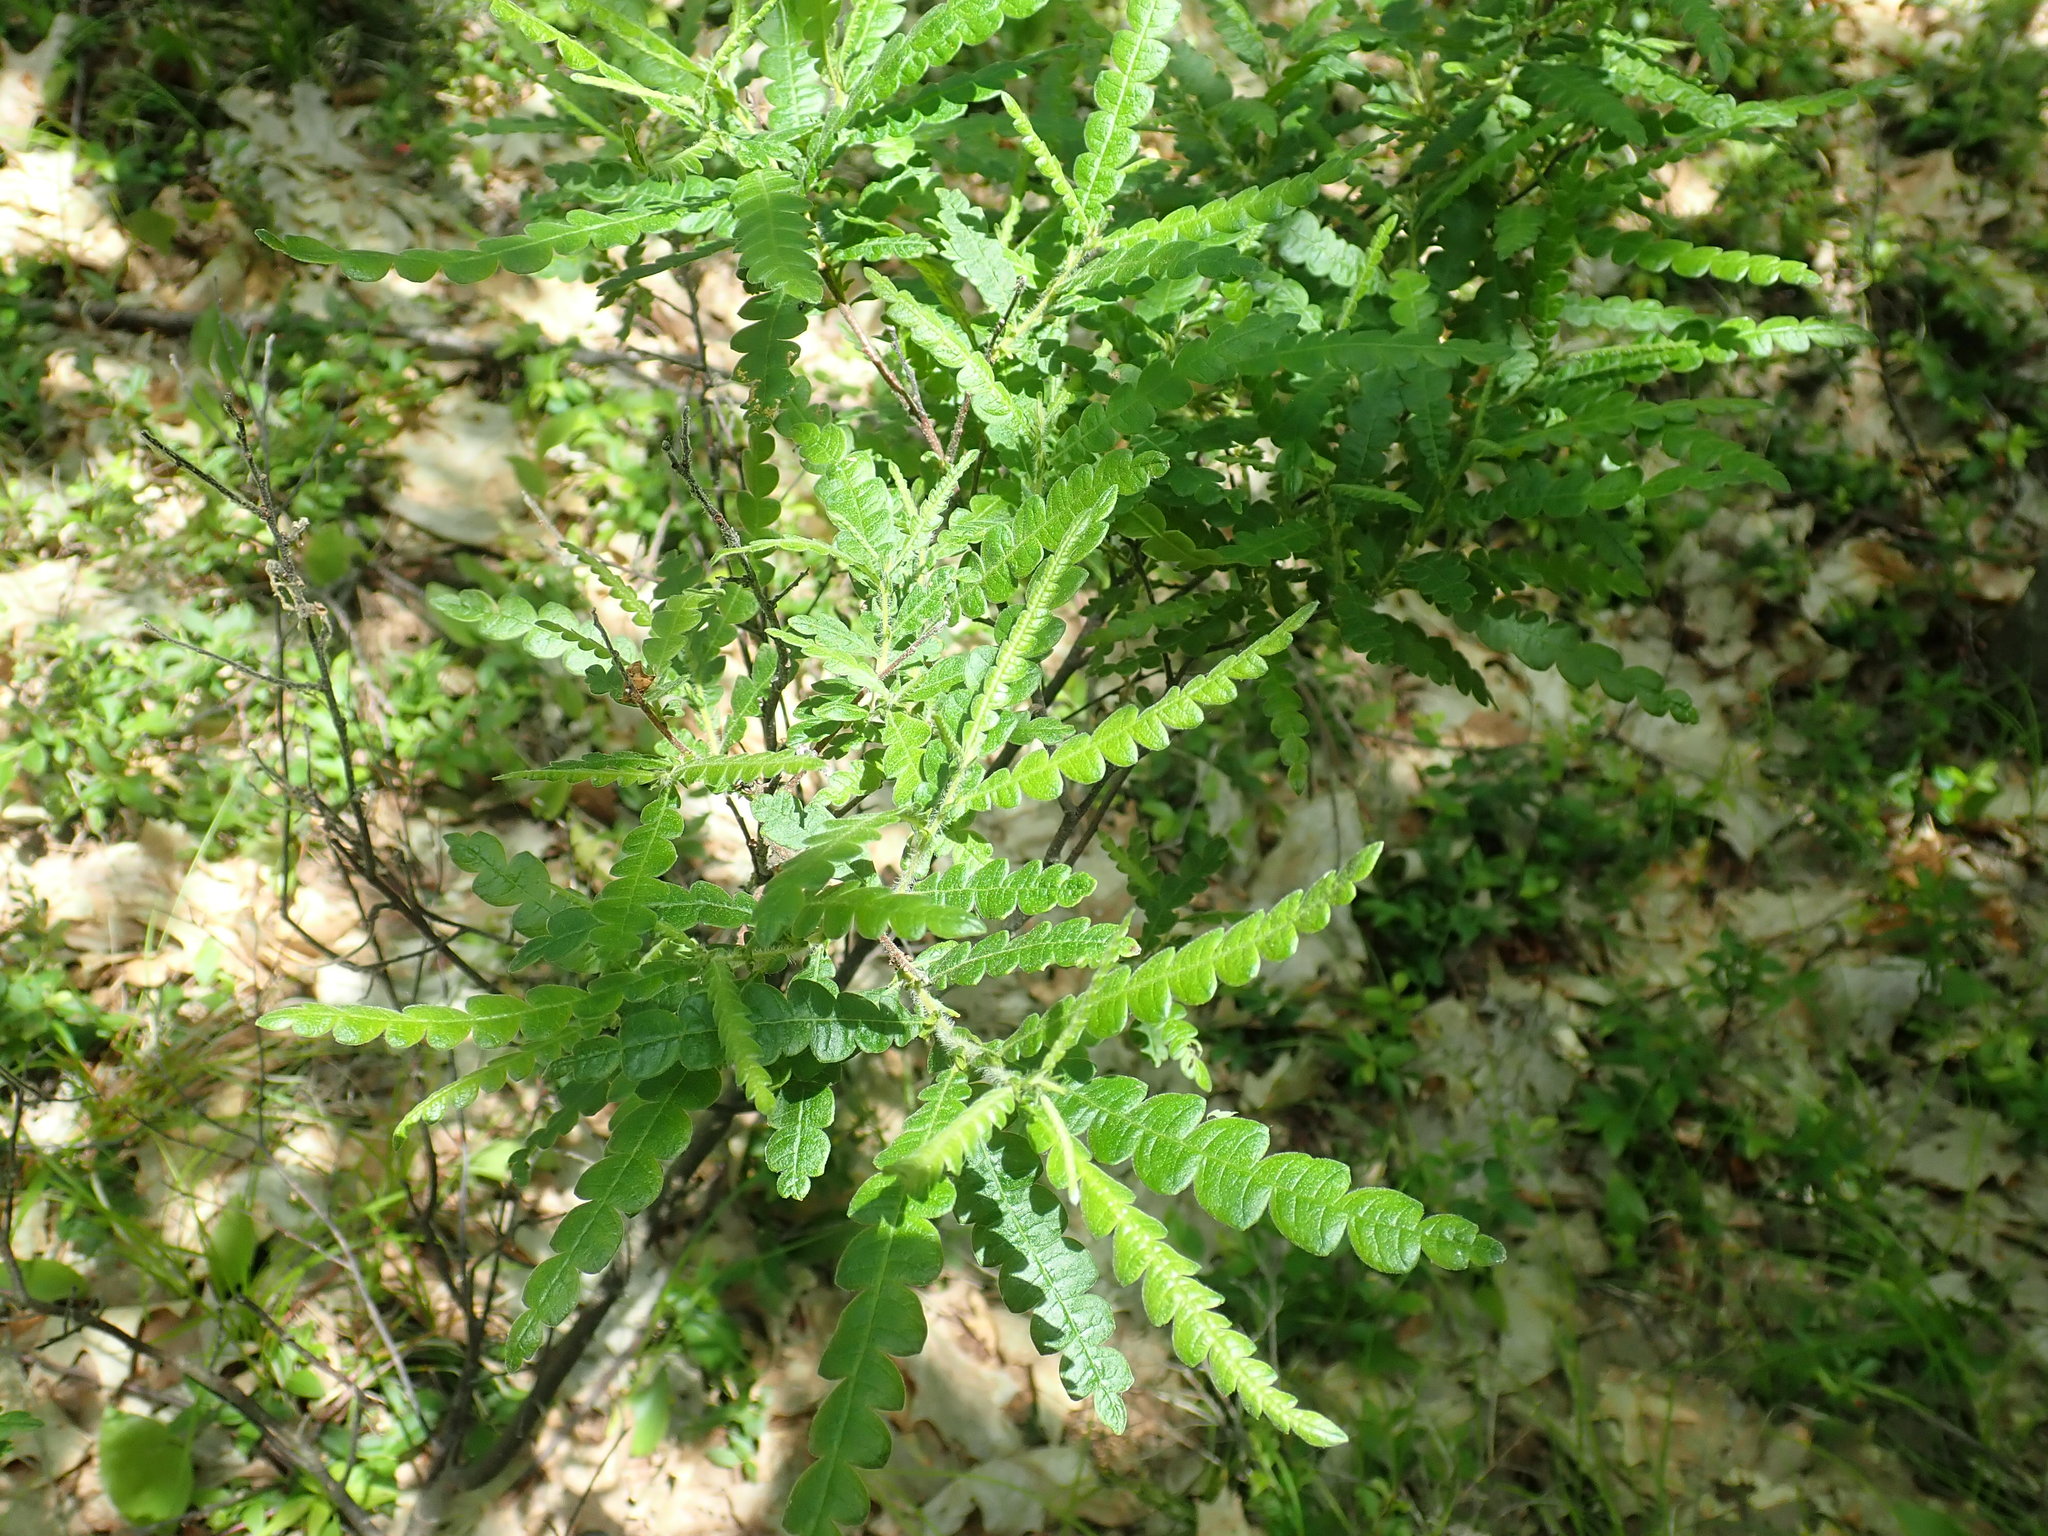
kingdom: Plantae
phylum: Tracheophyta
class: Magnoliopsida
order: Fagales
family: Myricaceae
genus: Comptonia
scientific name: Comptonia peregrina
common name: Sweet-fern
